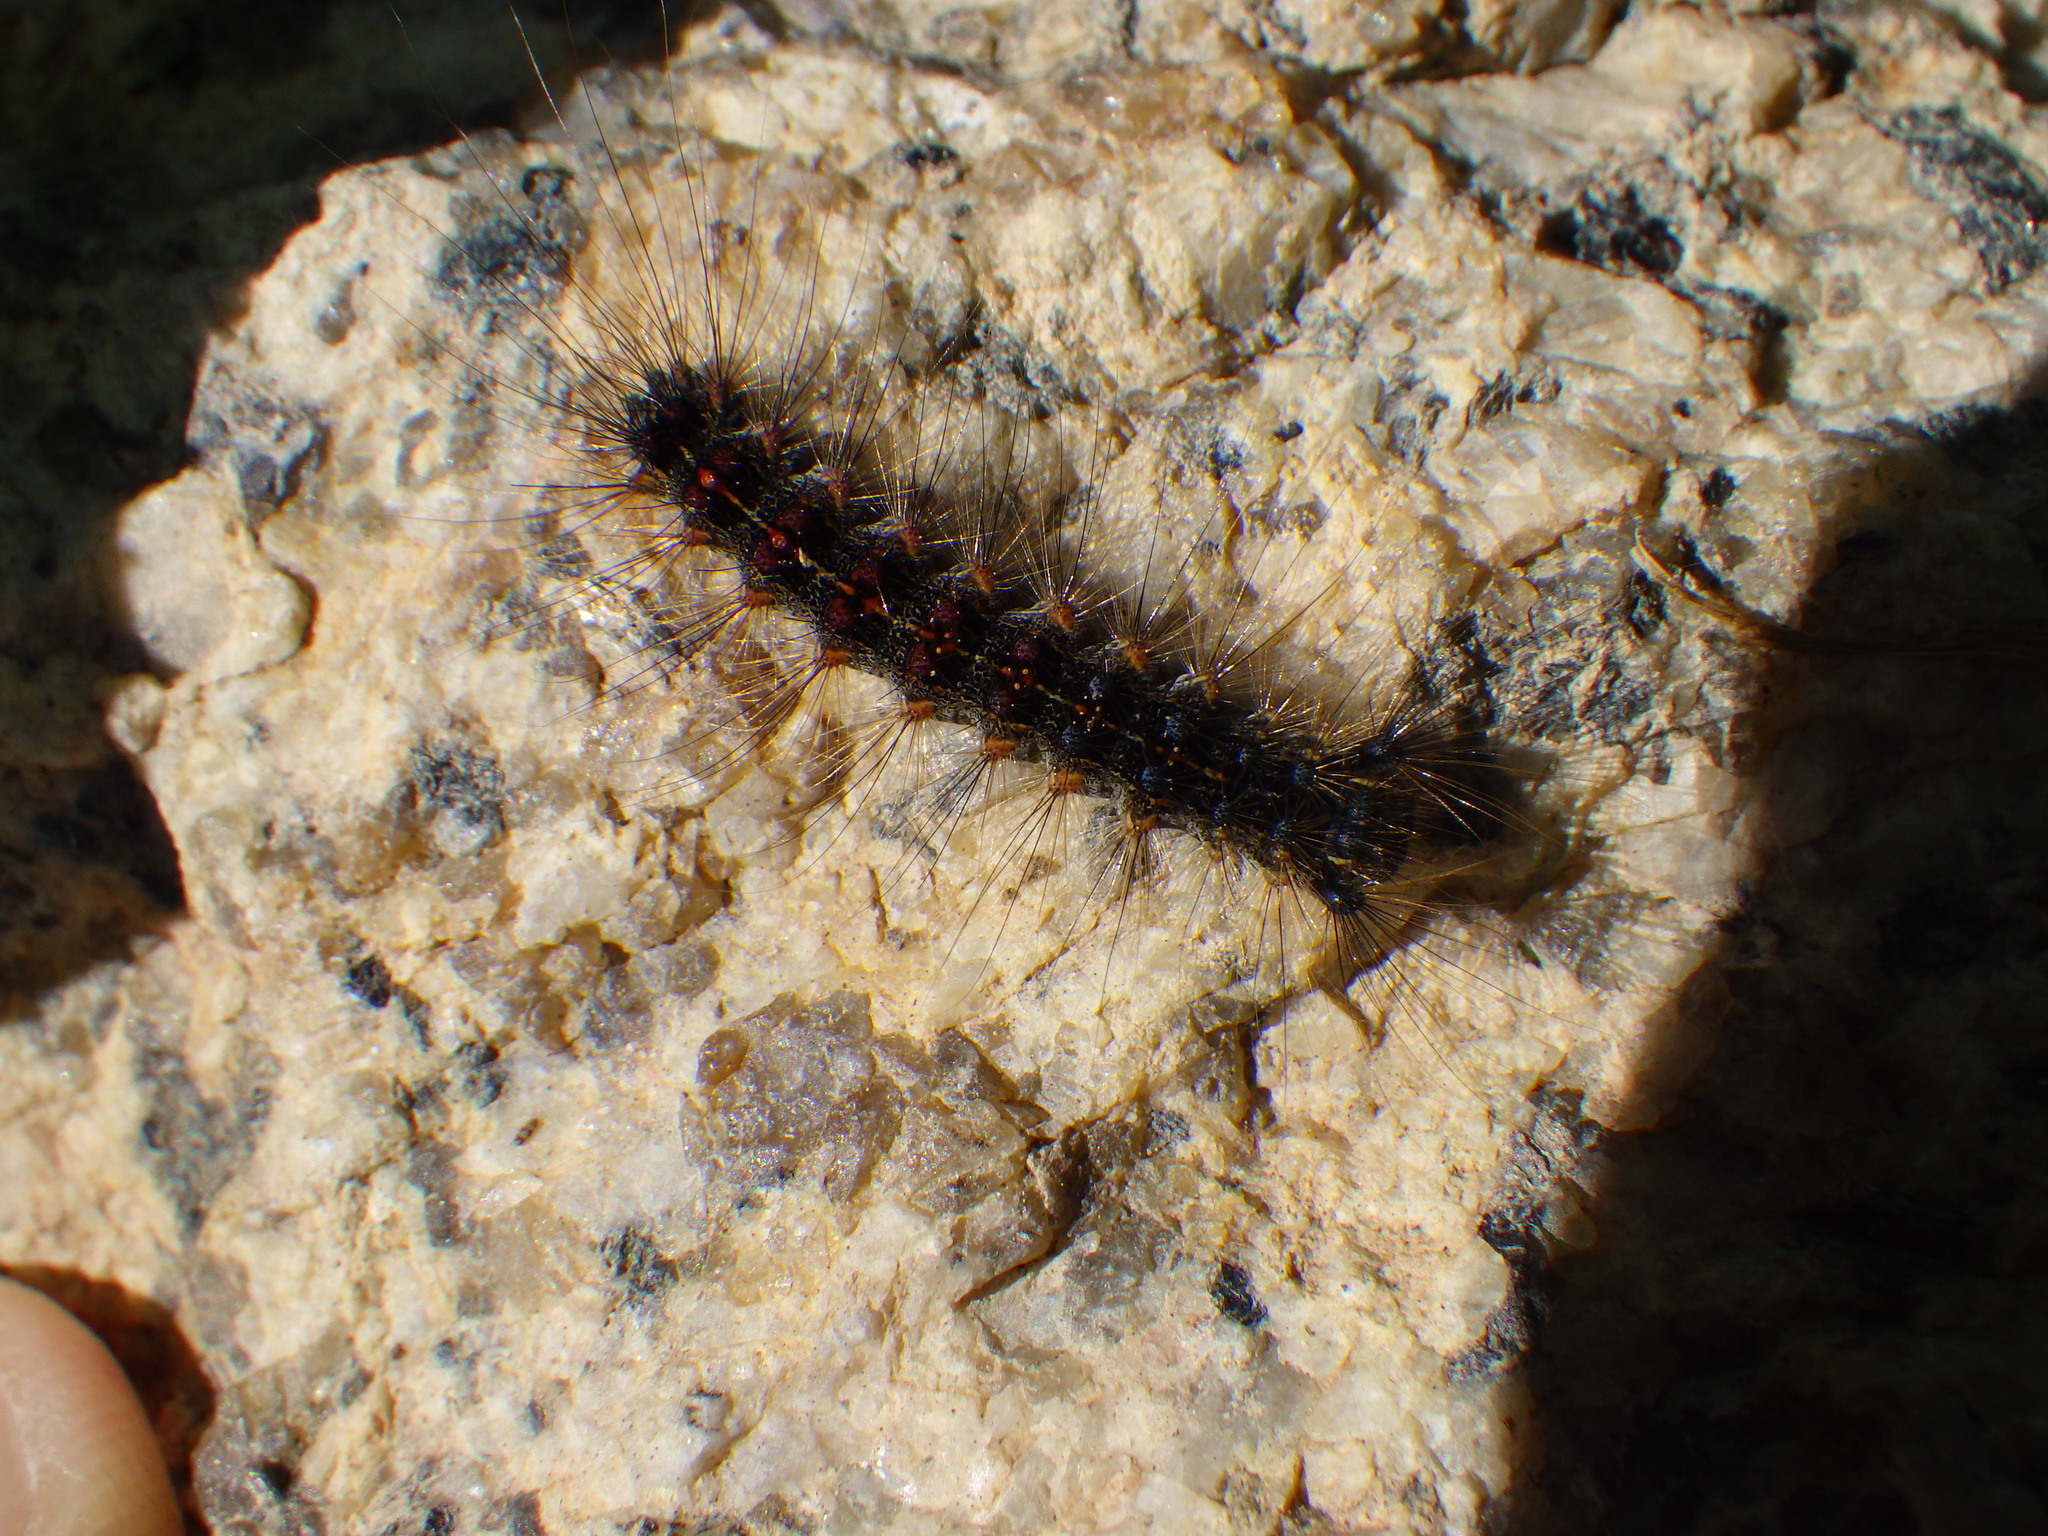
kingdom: Animalia
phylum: Arthropoda
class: Insecta
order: Lepidoptera
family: Erebidae
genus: Lymantria
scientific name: Lymantria dispar
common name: Gypsy moth
